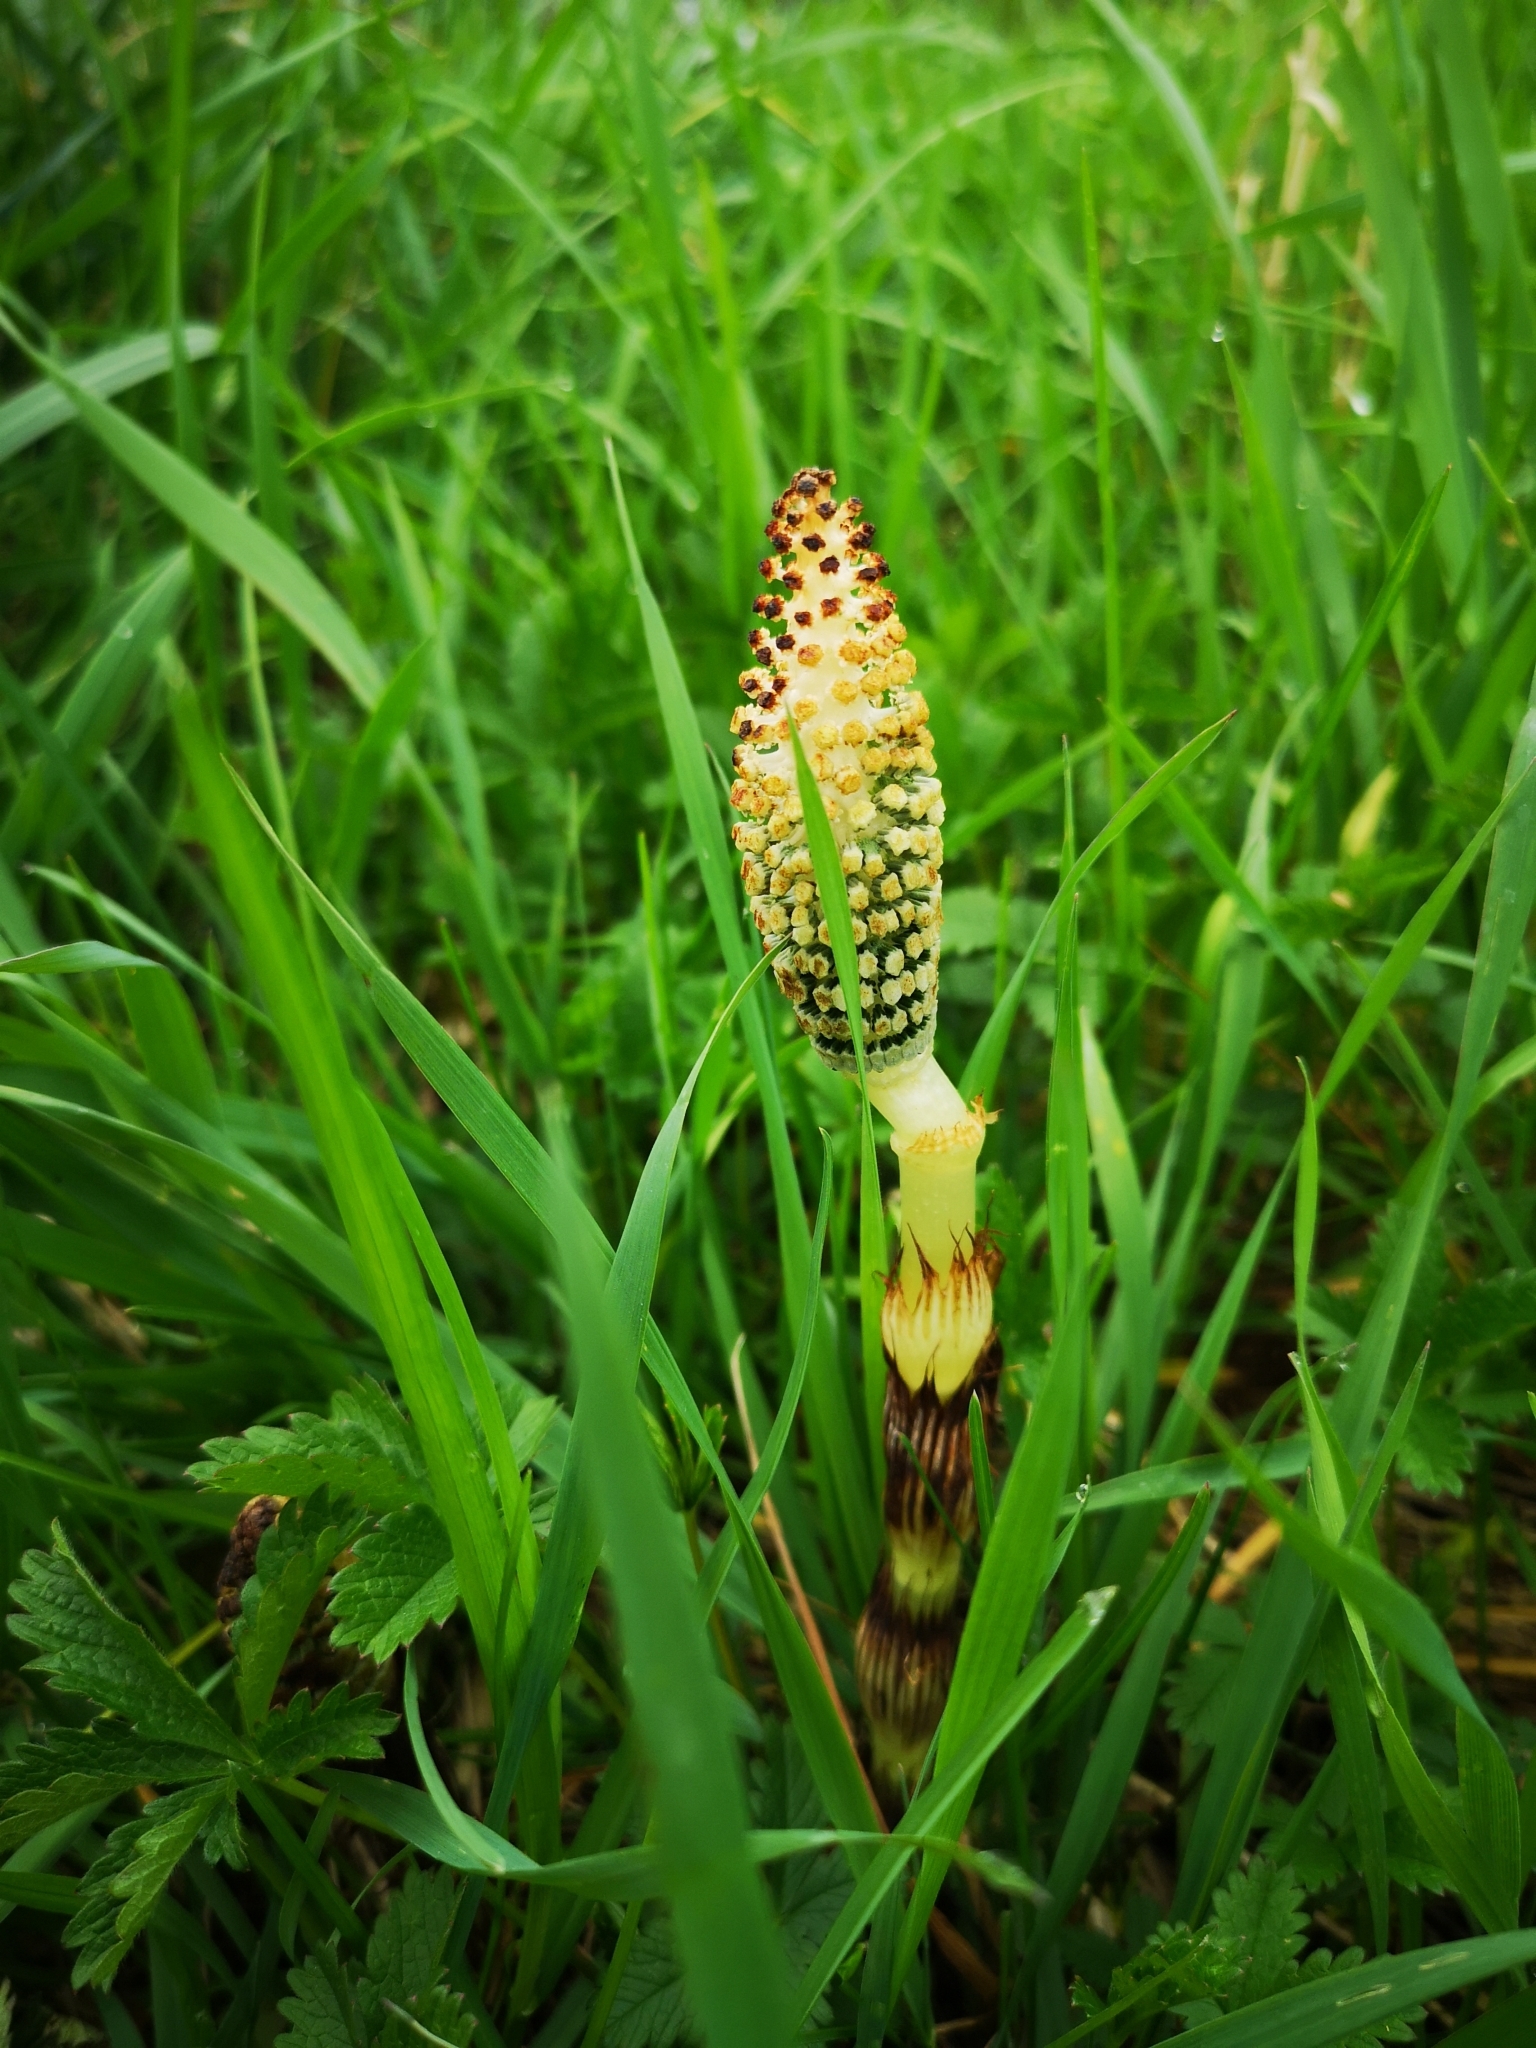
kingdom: Plantae
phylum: Tracheophyta
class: Polypodiopsida
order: Equisetales
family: Equisetaceae
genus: Equisetum
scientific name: Equisetum telmateia
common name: Great horsetail
